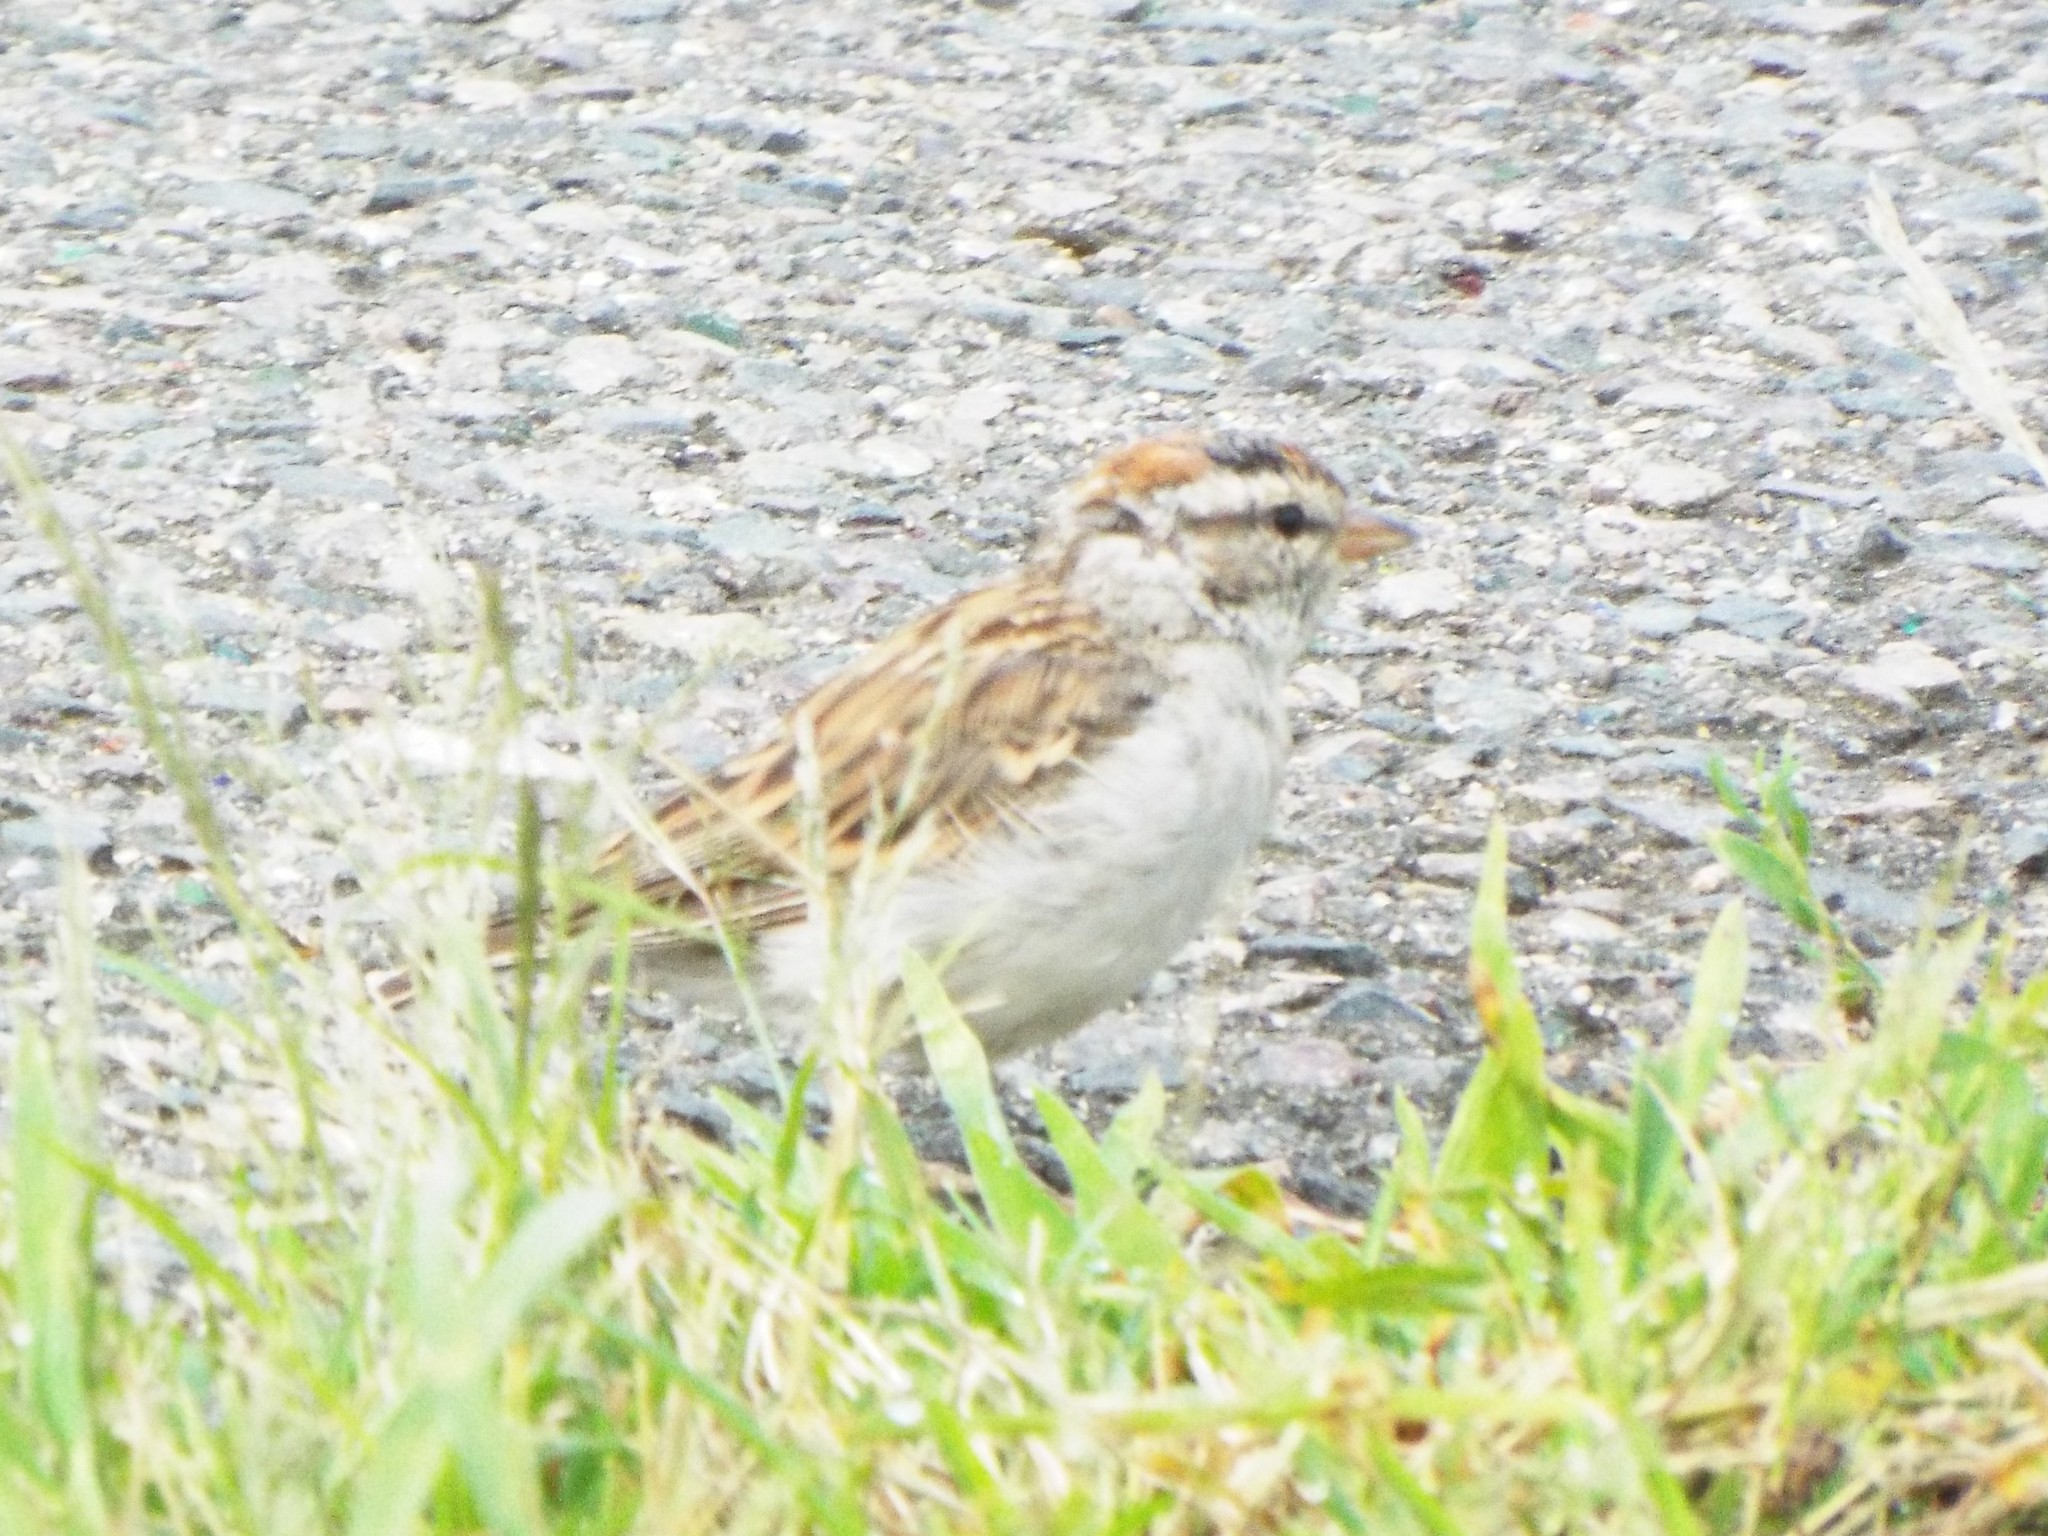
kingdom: Animalia
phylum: Chordata
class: Aves
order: Passeriformes
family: Passerellidae
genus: Spizella
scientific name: Spizella passerina
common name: Chipping sparrow
